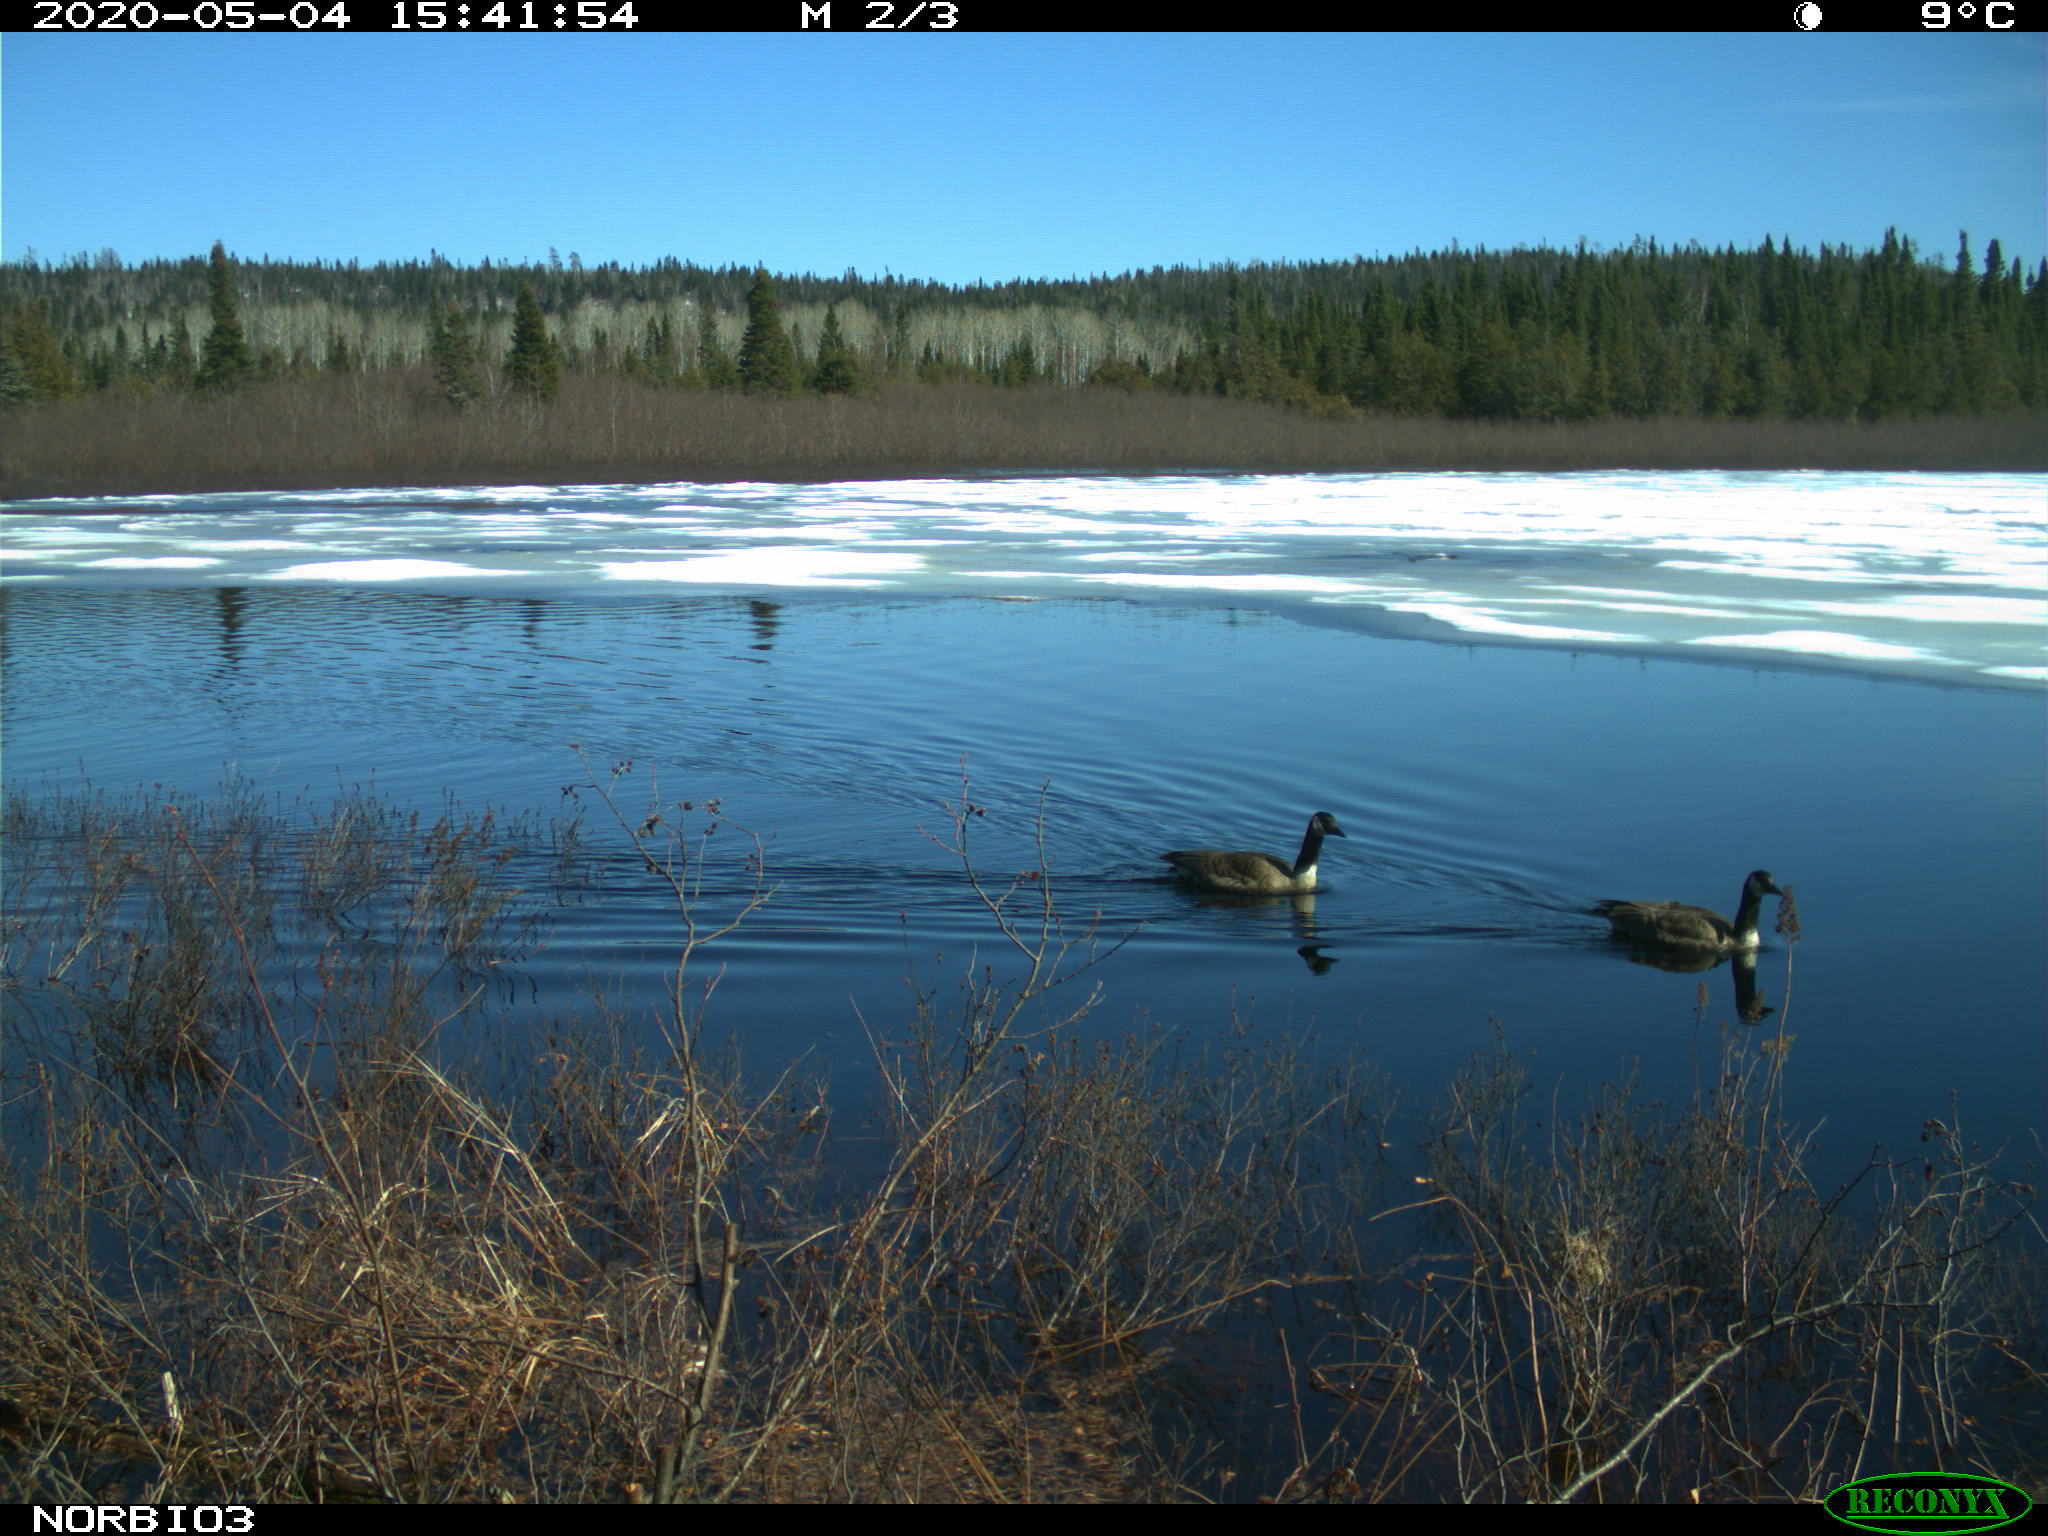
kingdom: Animalia
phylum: Chordata
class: Aves
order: Anseriformes
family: Anatidae
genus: Branta
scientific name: Branta canadensis
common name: Canada goose
